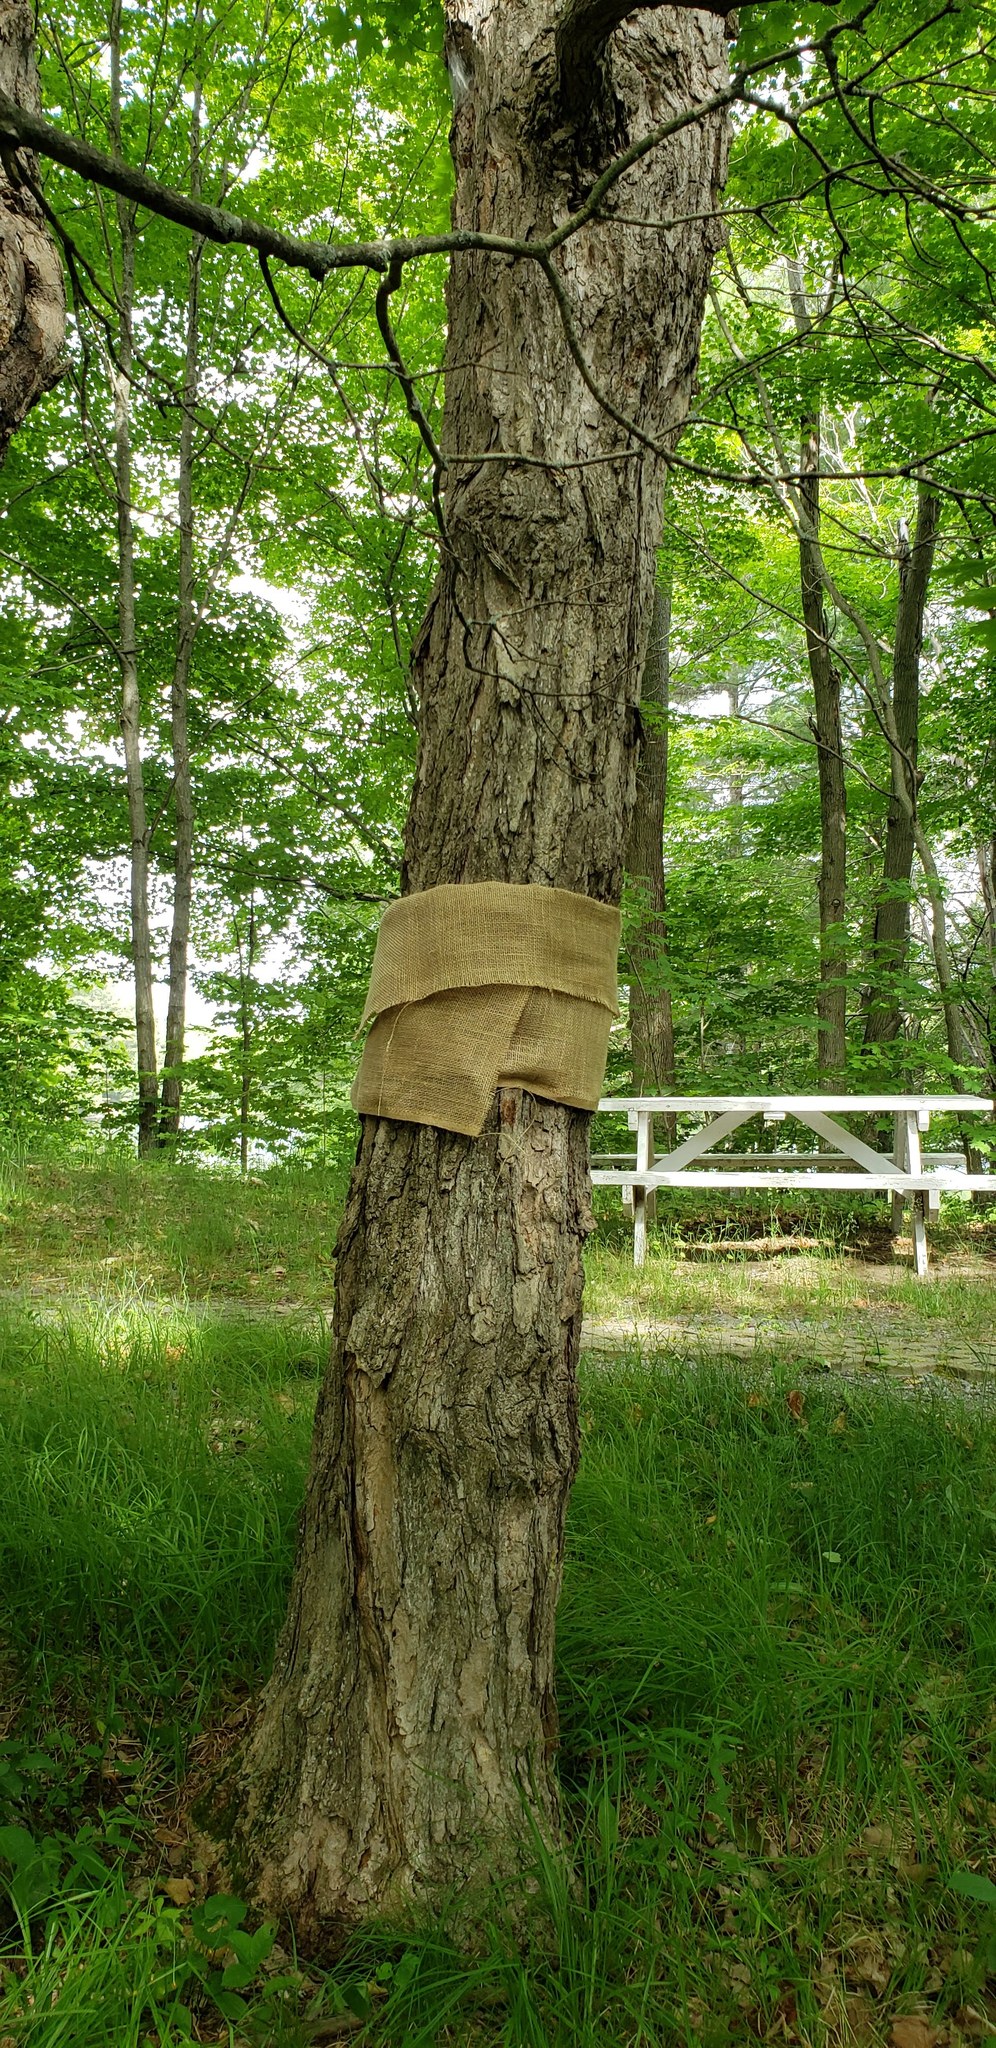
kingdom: Plantae
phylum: Tracheophyta
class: Magnoliopsida
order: Fagales
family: Juglandaceae
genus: Carya
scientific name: Carya ovata
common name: Shagbark hickory
